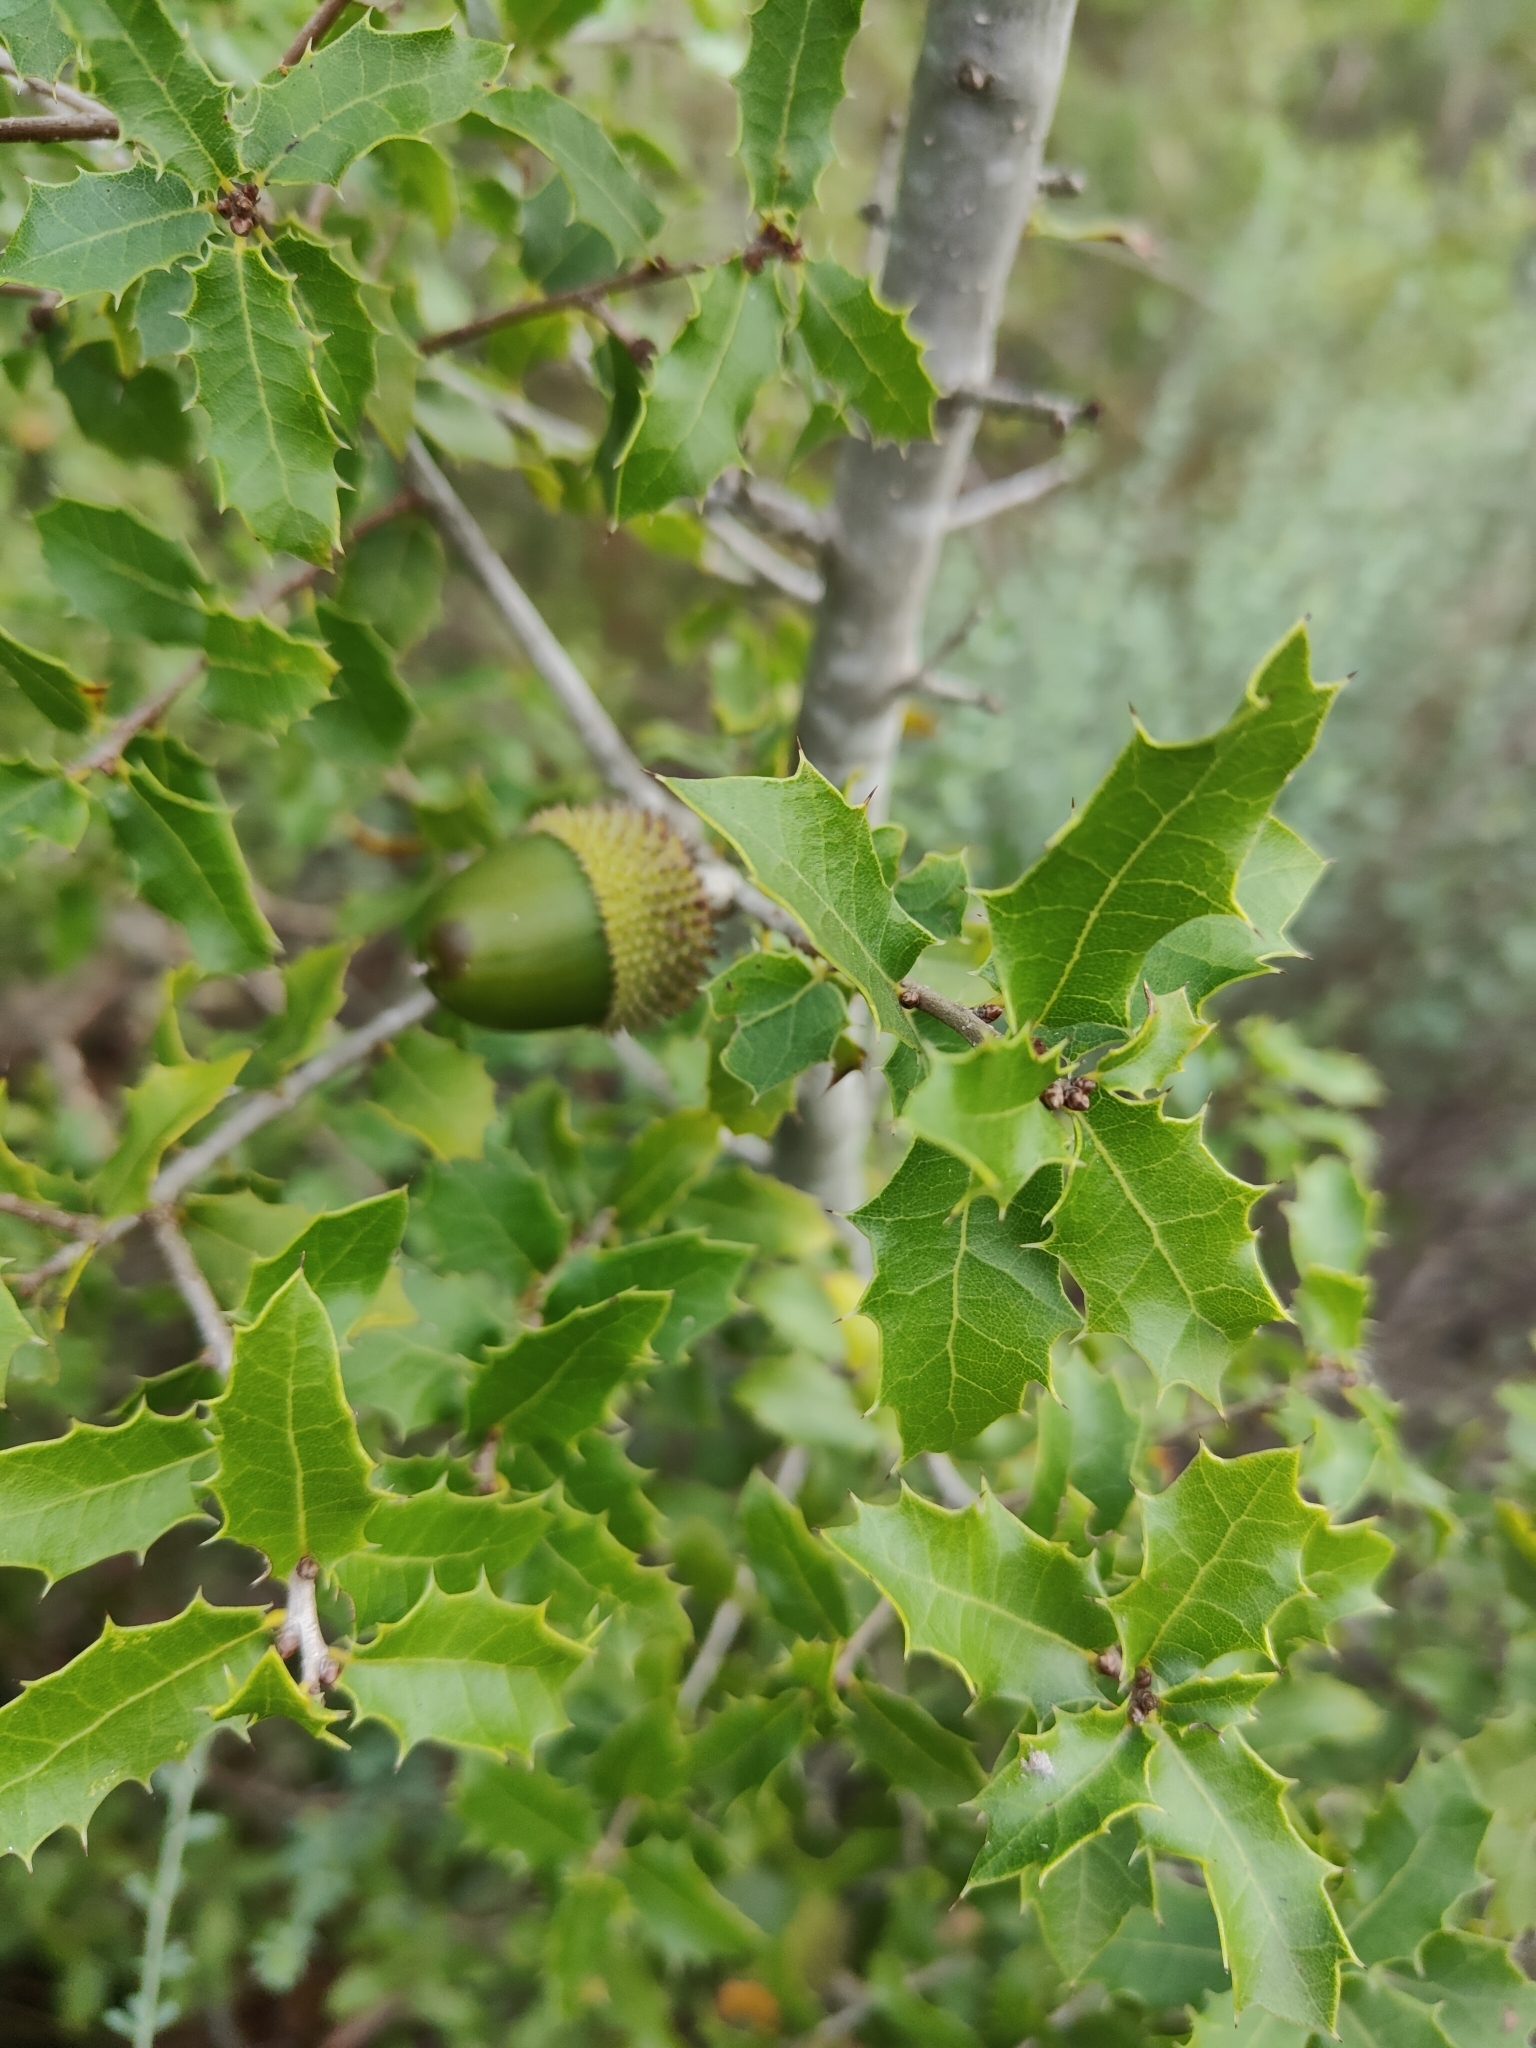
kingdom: Plantae
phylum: Tracheophyta
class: Magnoliopsida
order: Fagales
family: Fagaceae
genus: Quercus
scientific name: Quercus coccifera
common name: Kermes oak
